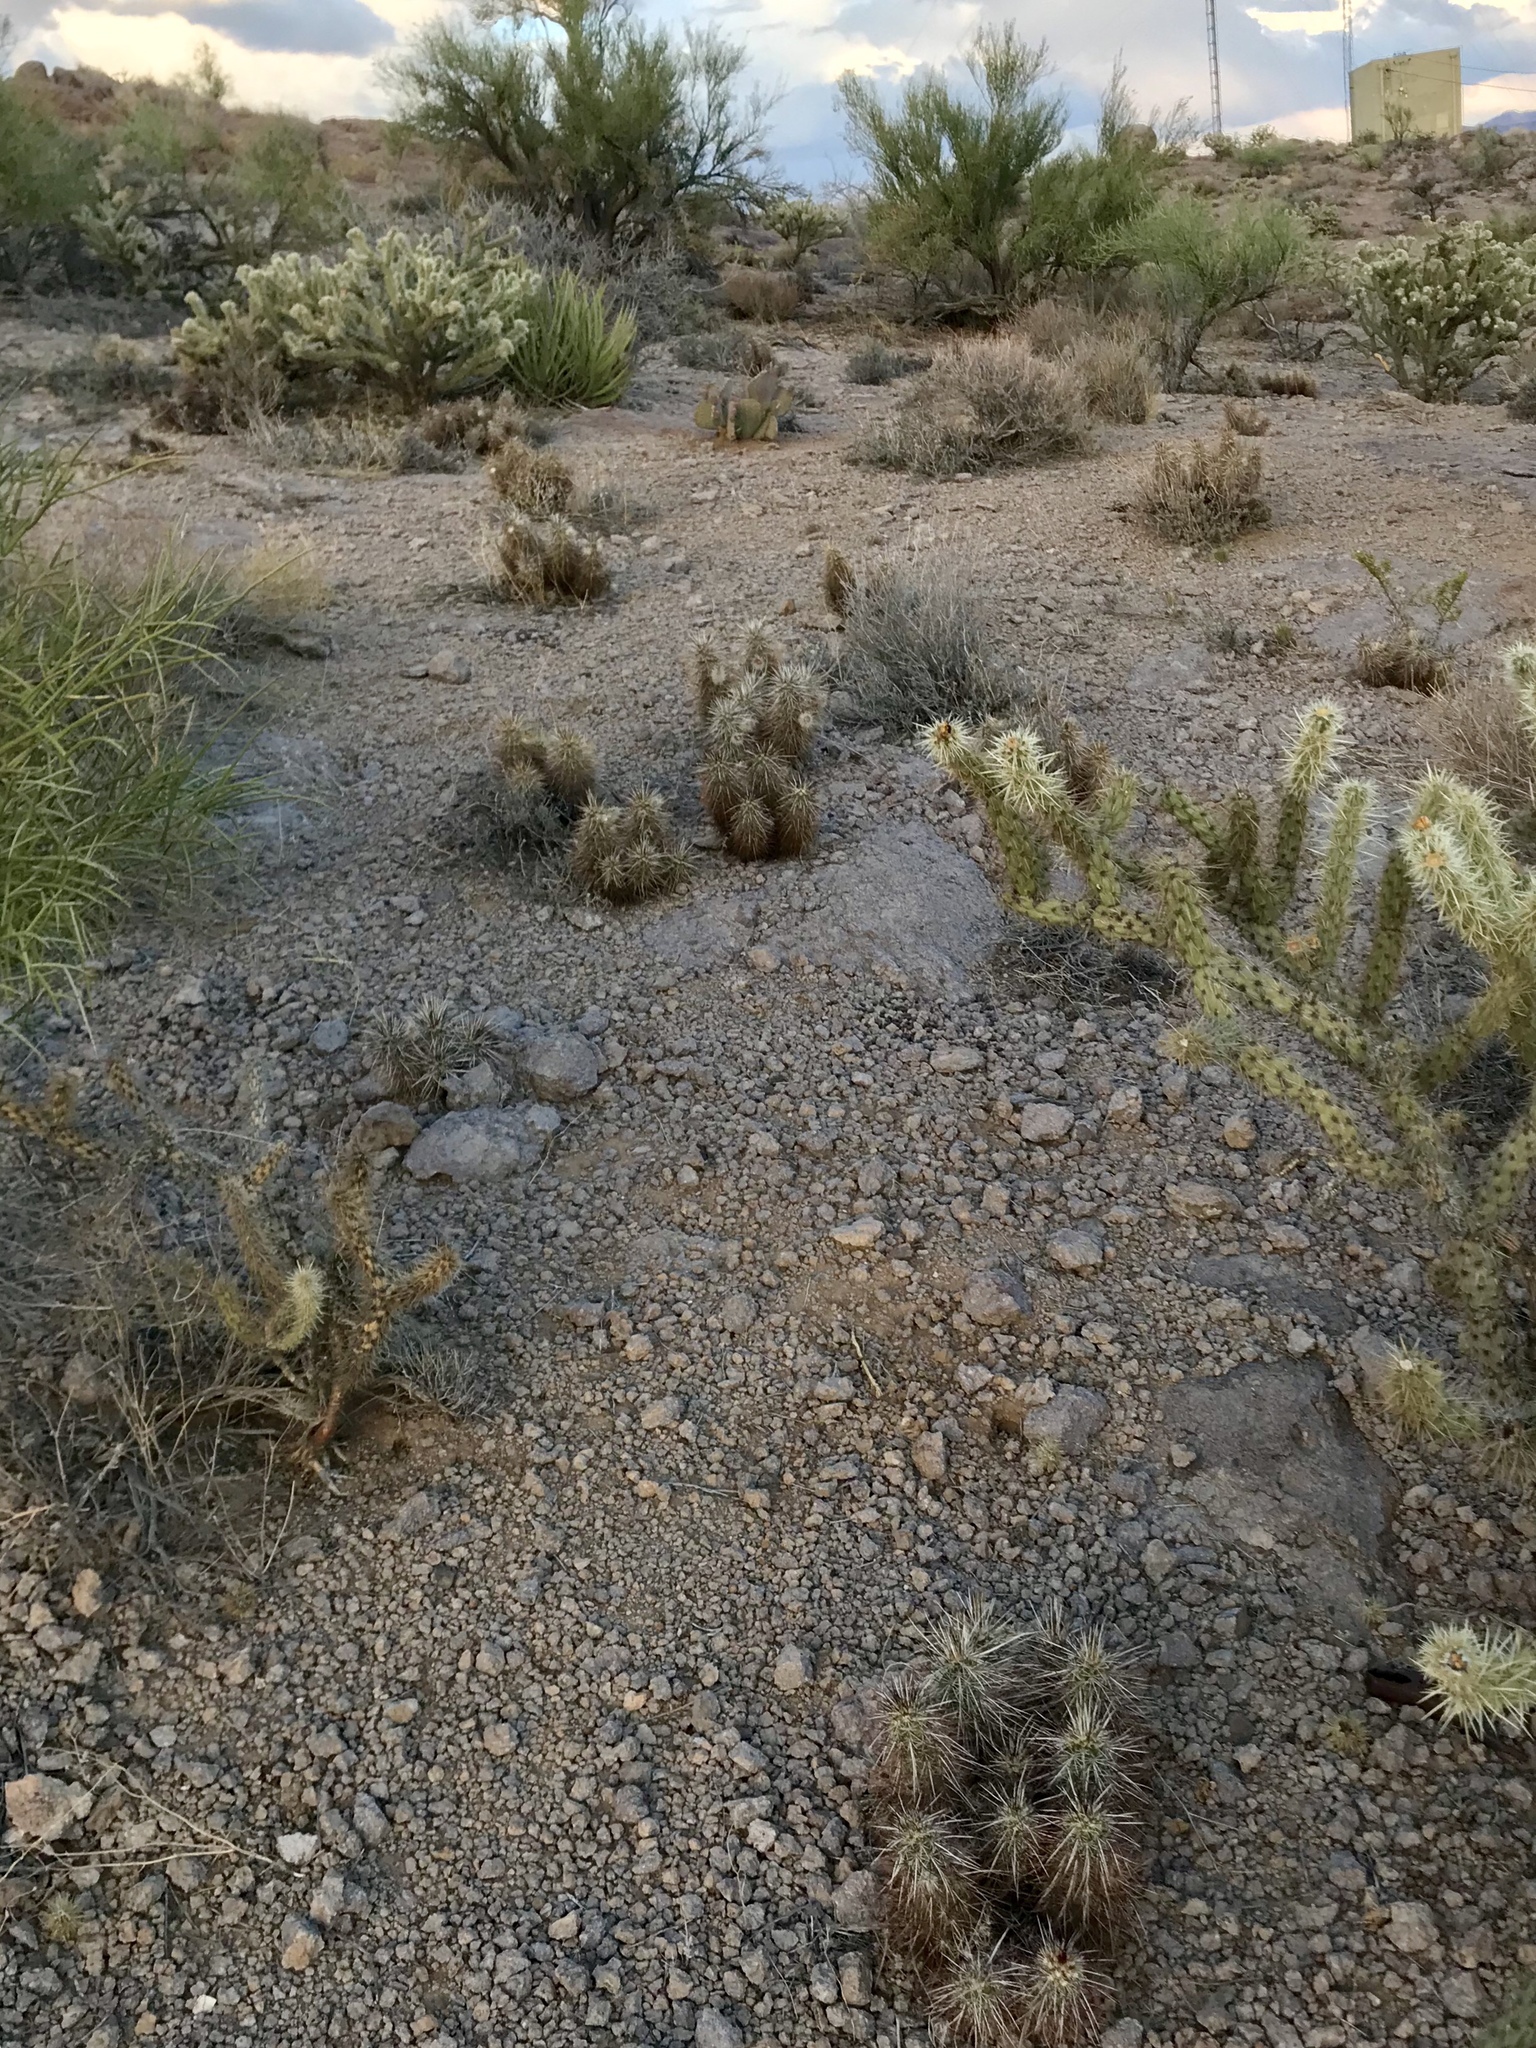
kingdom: Plantae
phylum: Tracheophyta
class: Magnoliopsida
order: Caryophyllales
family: Cactaceae
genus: Echinocereus
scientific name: Echinocereus engelmannii
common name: Engelmann's hedgehog cactus
